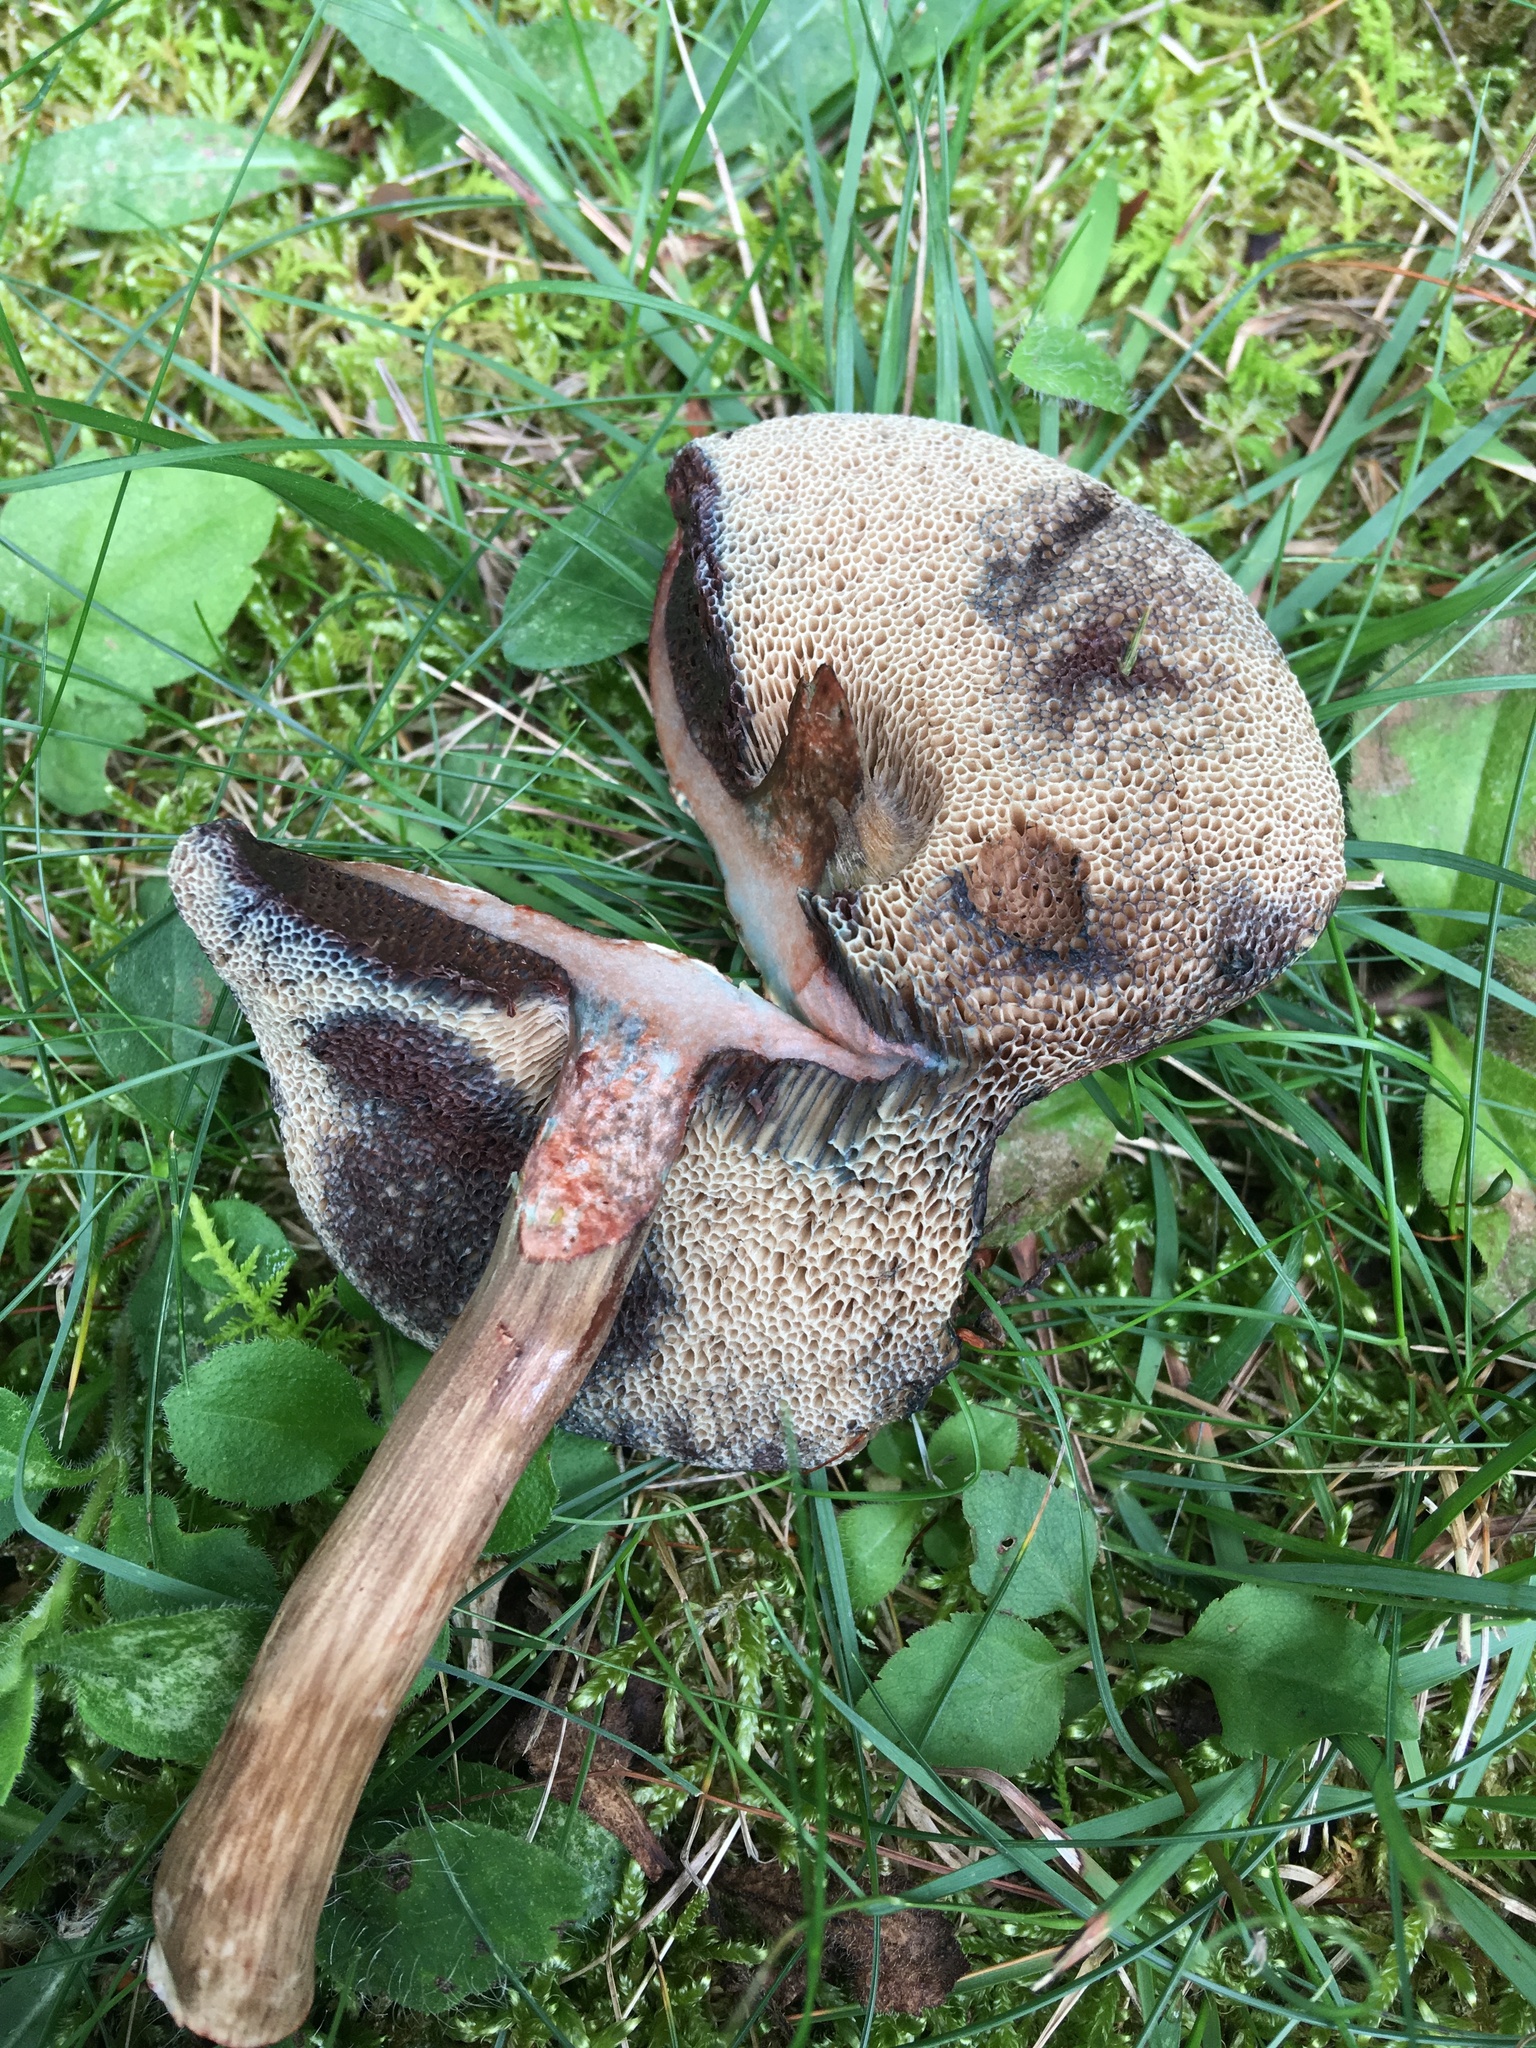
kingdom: Fungi
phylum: Basidiomycota
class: Agaricomycetes
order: Boletales
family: Boletaceae
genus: Porphyrellus
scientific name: Porphyrellus sordidus
